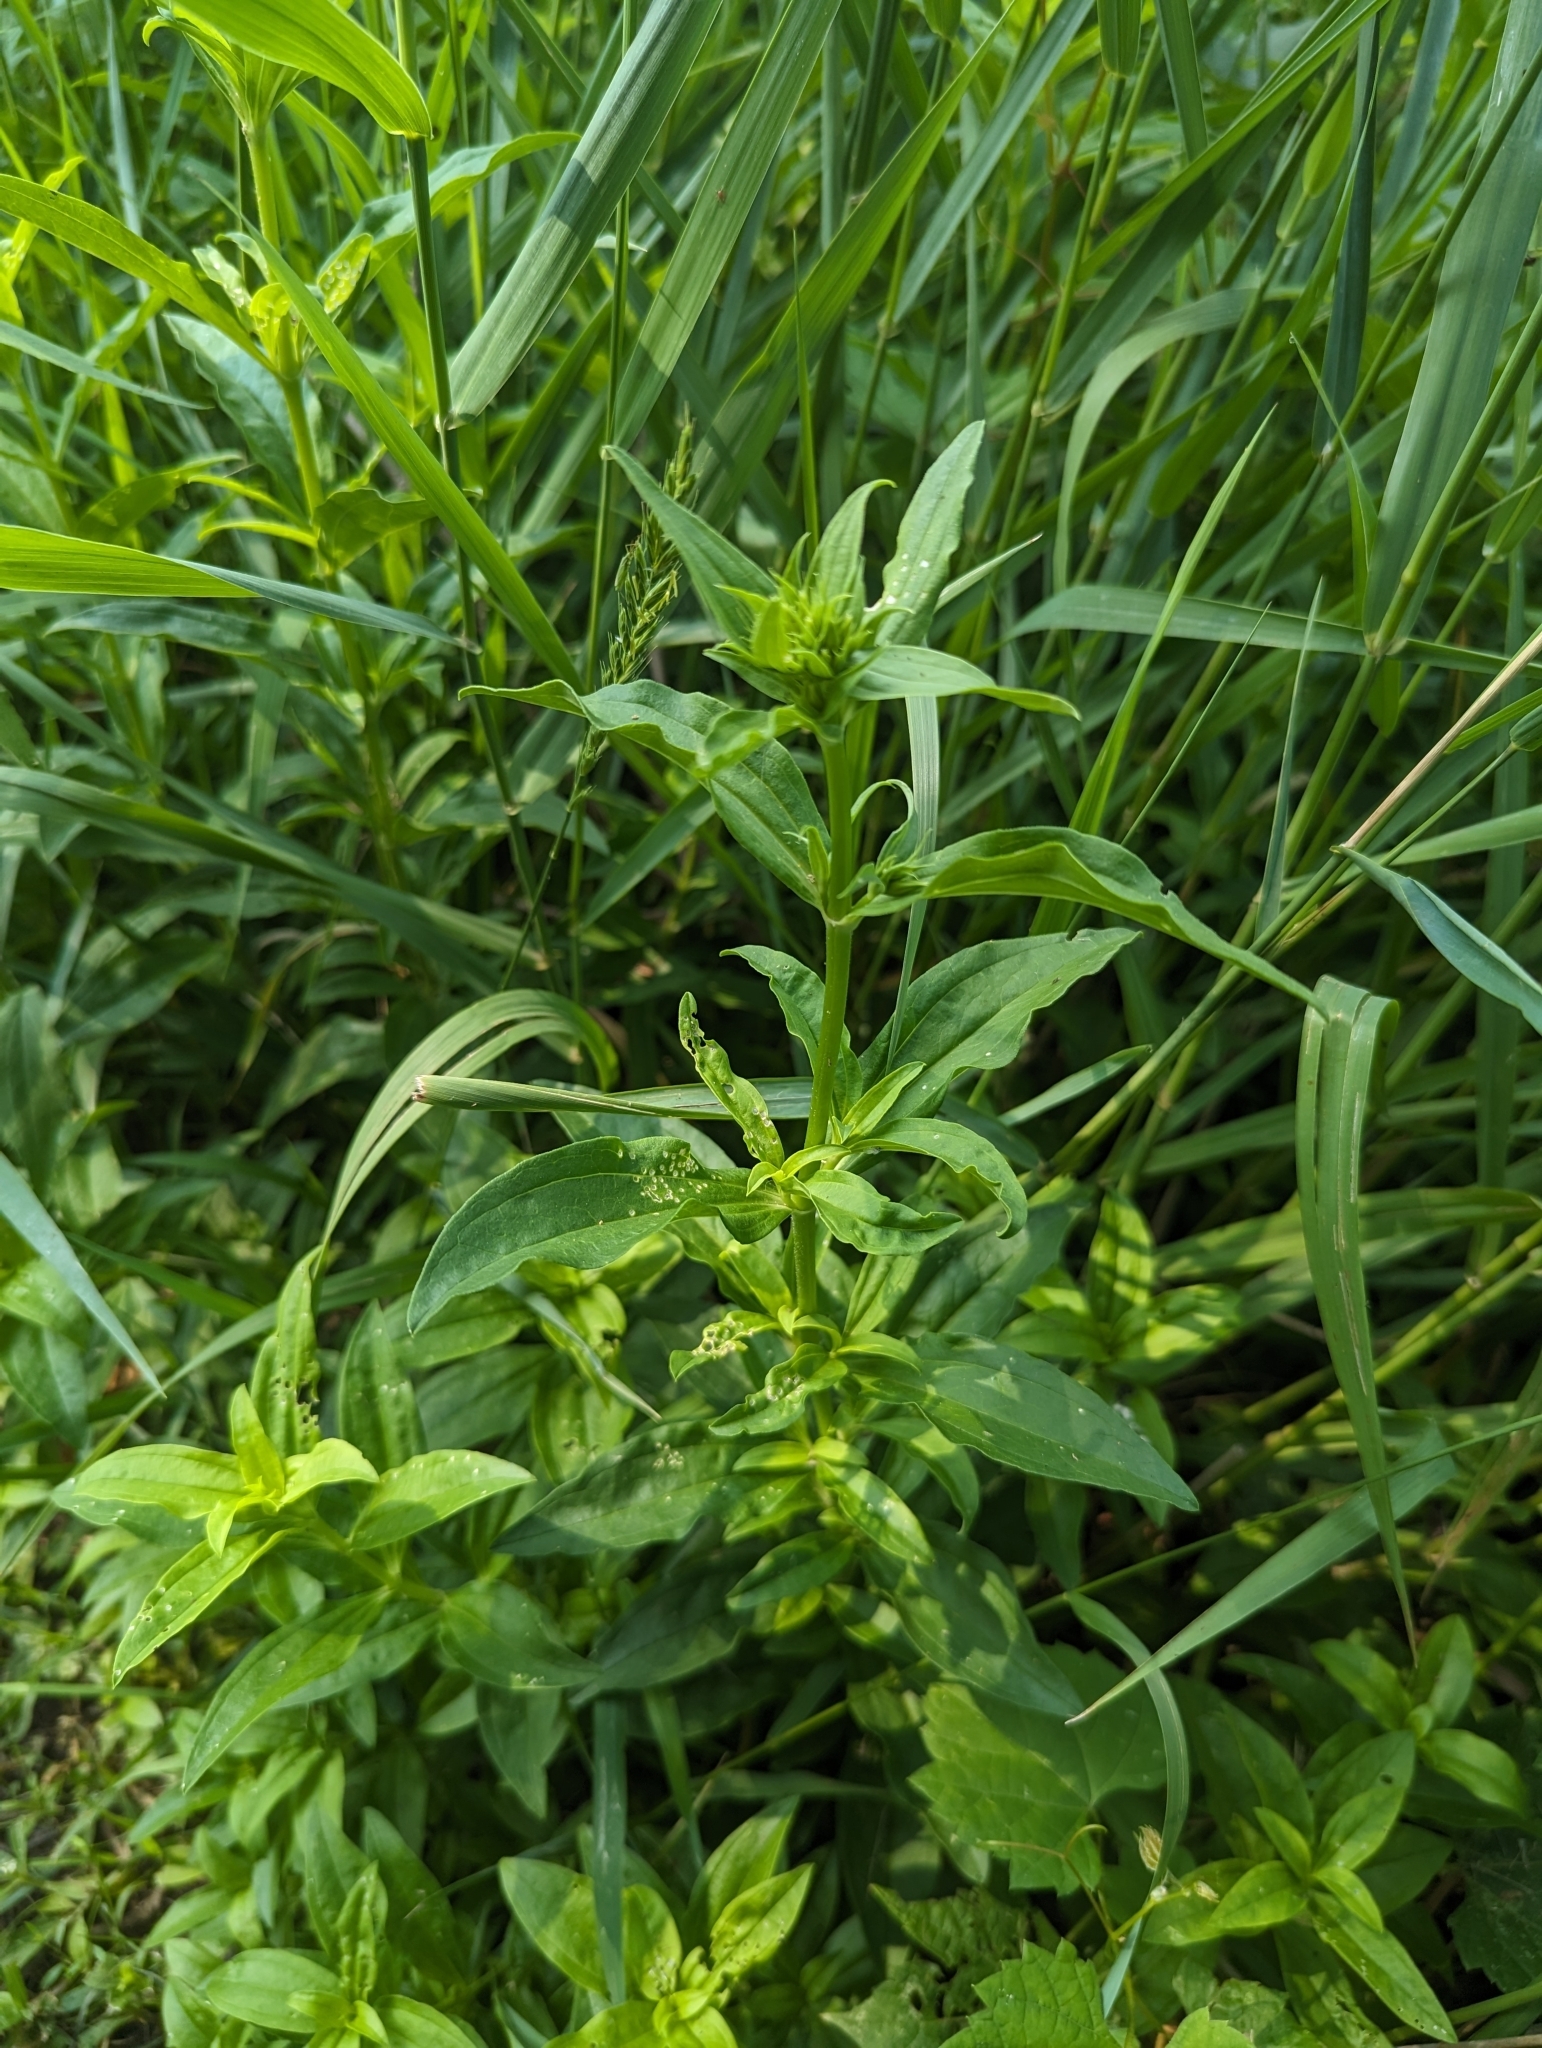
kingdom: Plantae
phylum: Tracheophyta
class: Magnoliopsida
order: Caryophyllales
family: Caryophyllaceae
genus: Saponaria
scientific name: Saponaria officinalis
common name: Soapwort
